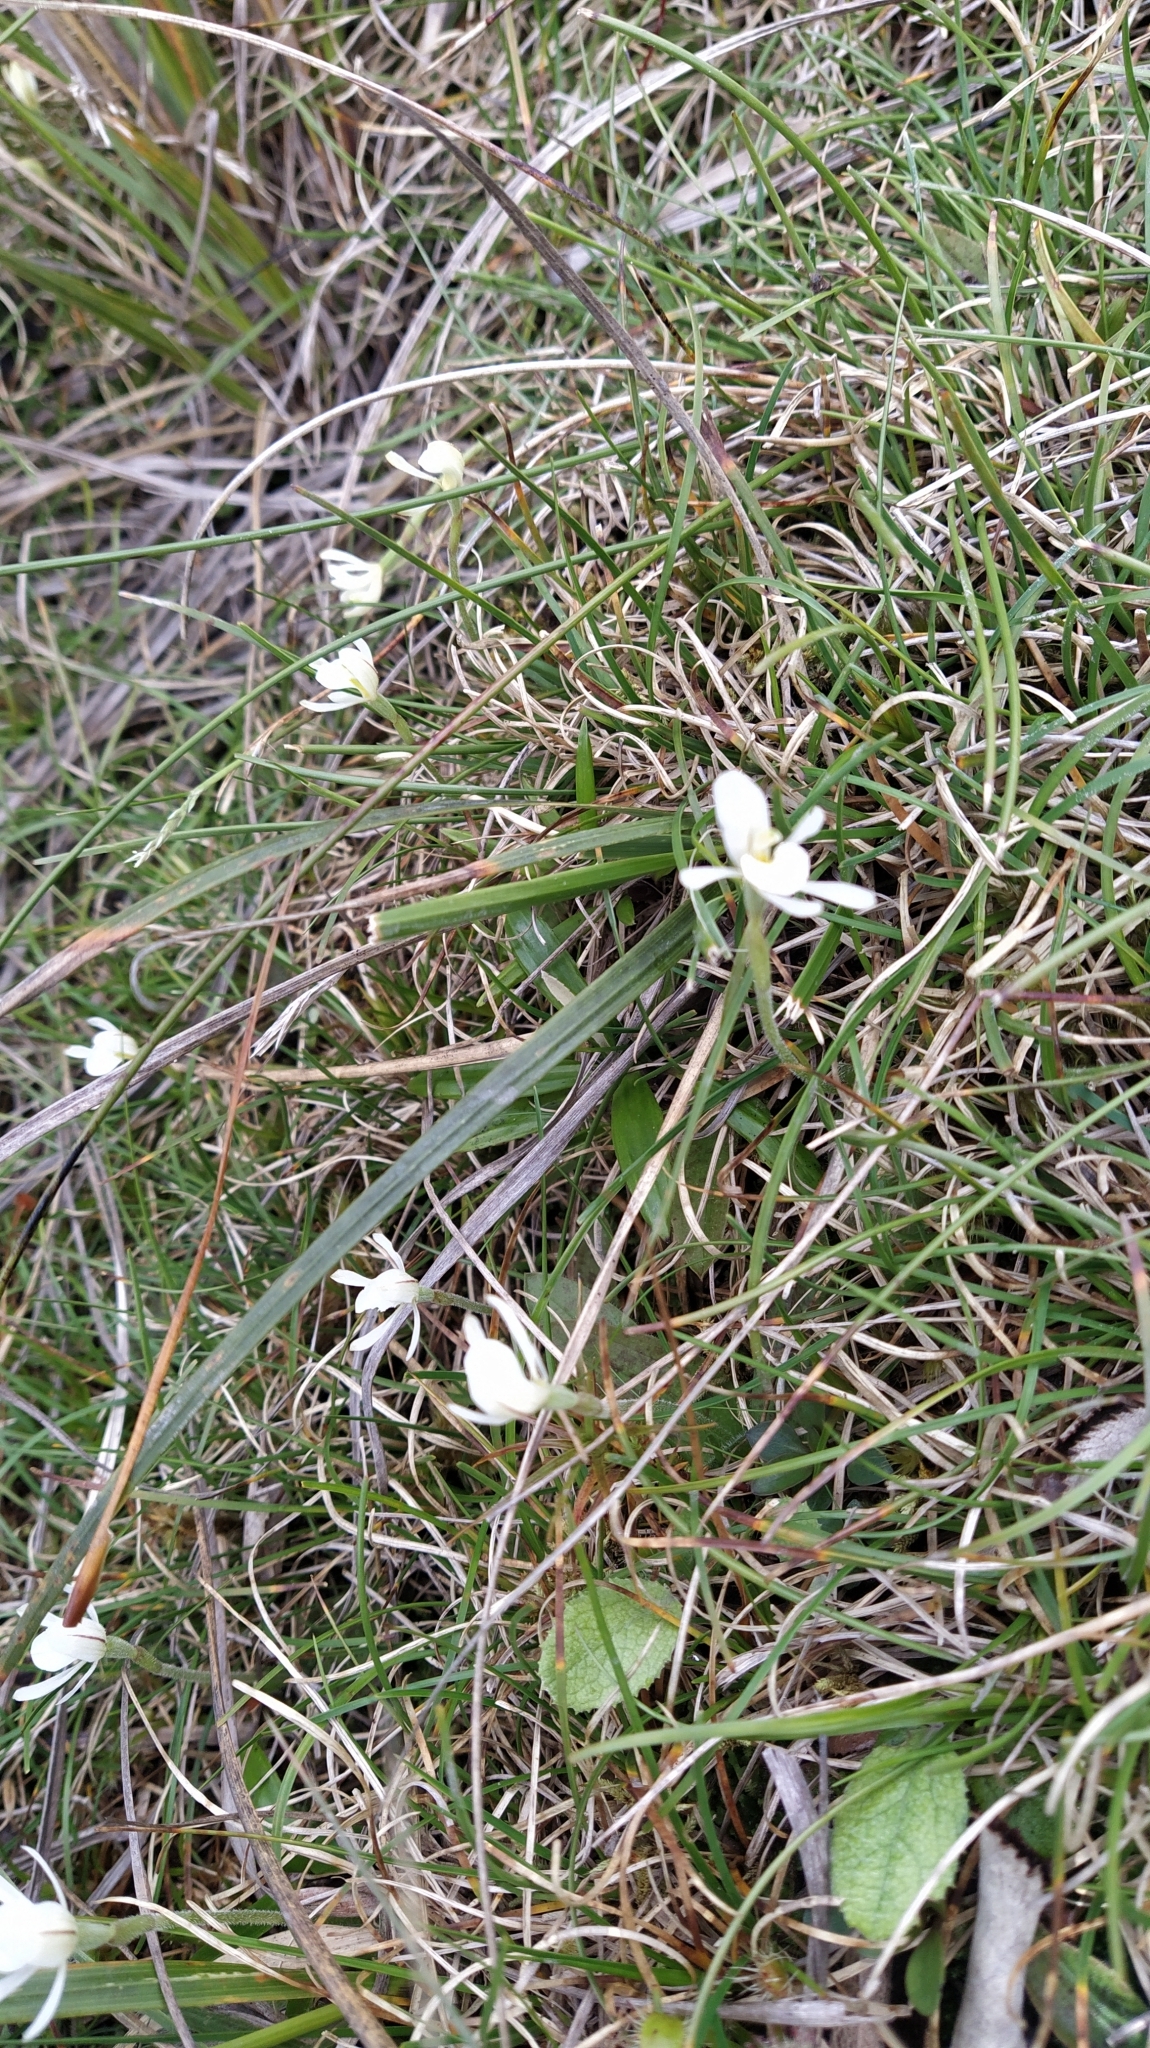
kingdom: Plantae
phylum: Tracheophyta
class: Liliopsida
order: Asparagales
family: Orchidaceae
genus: Aporostylis
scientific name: Aporostylis bifolia
